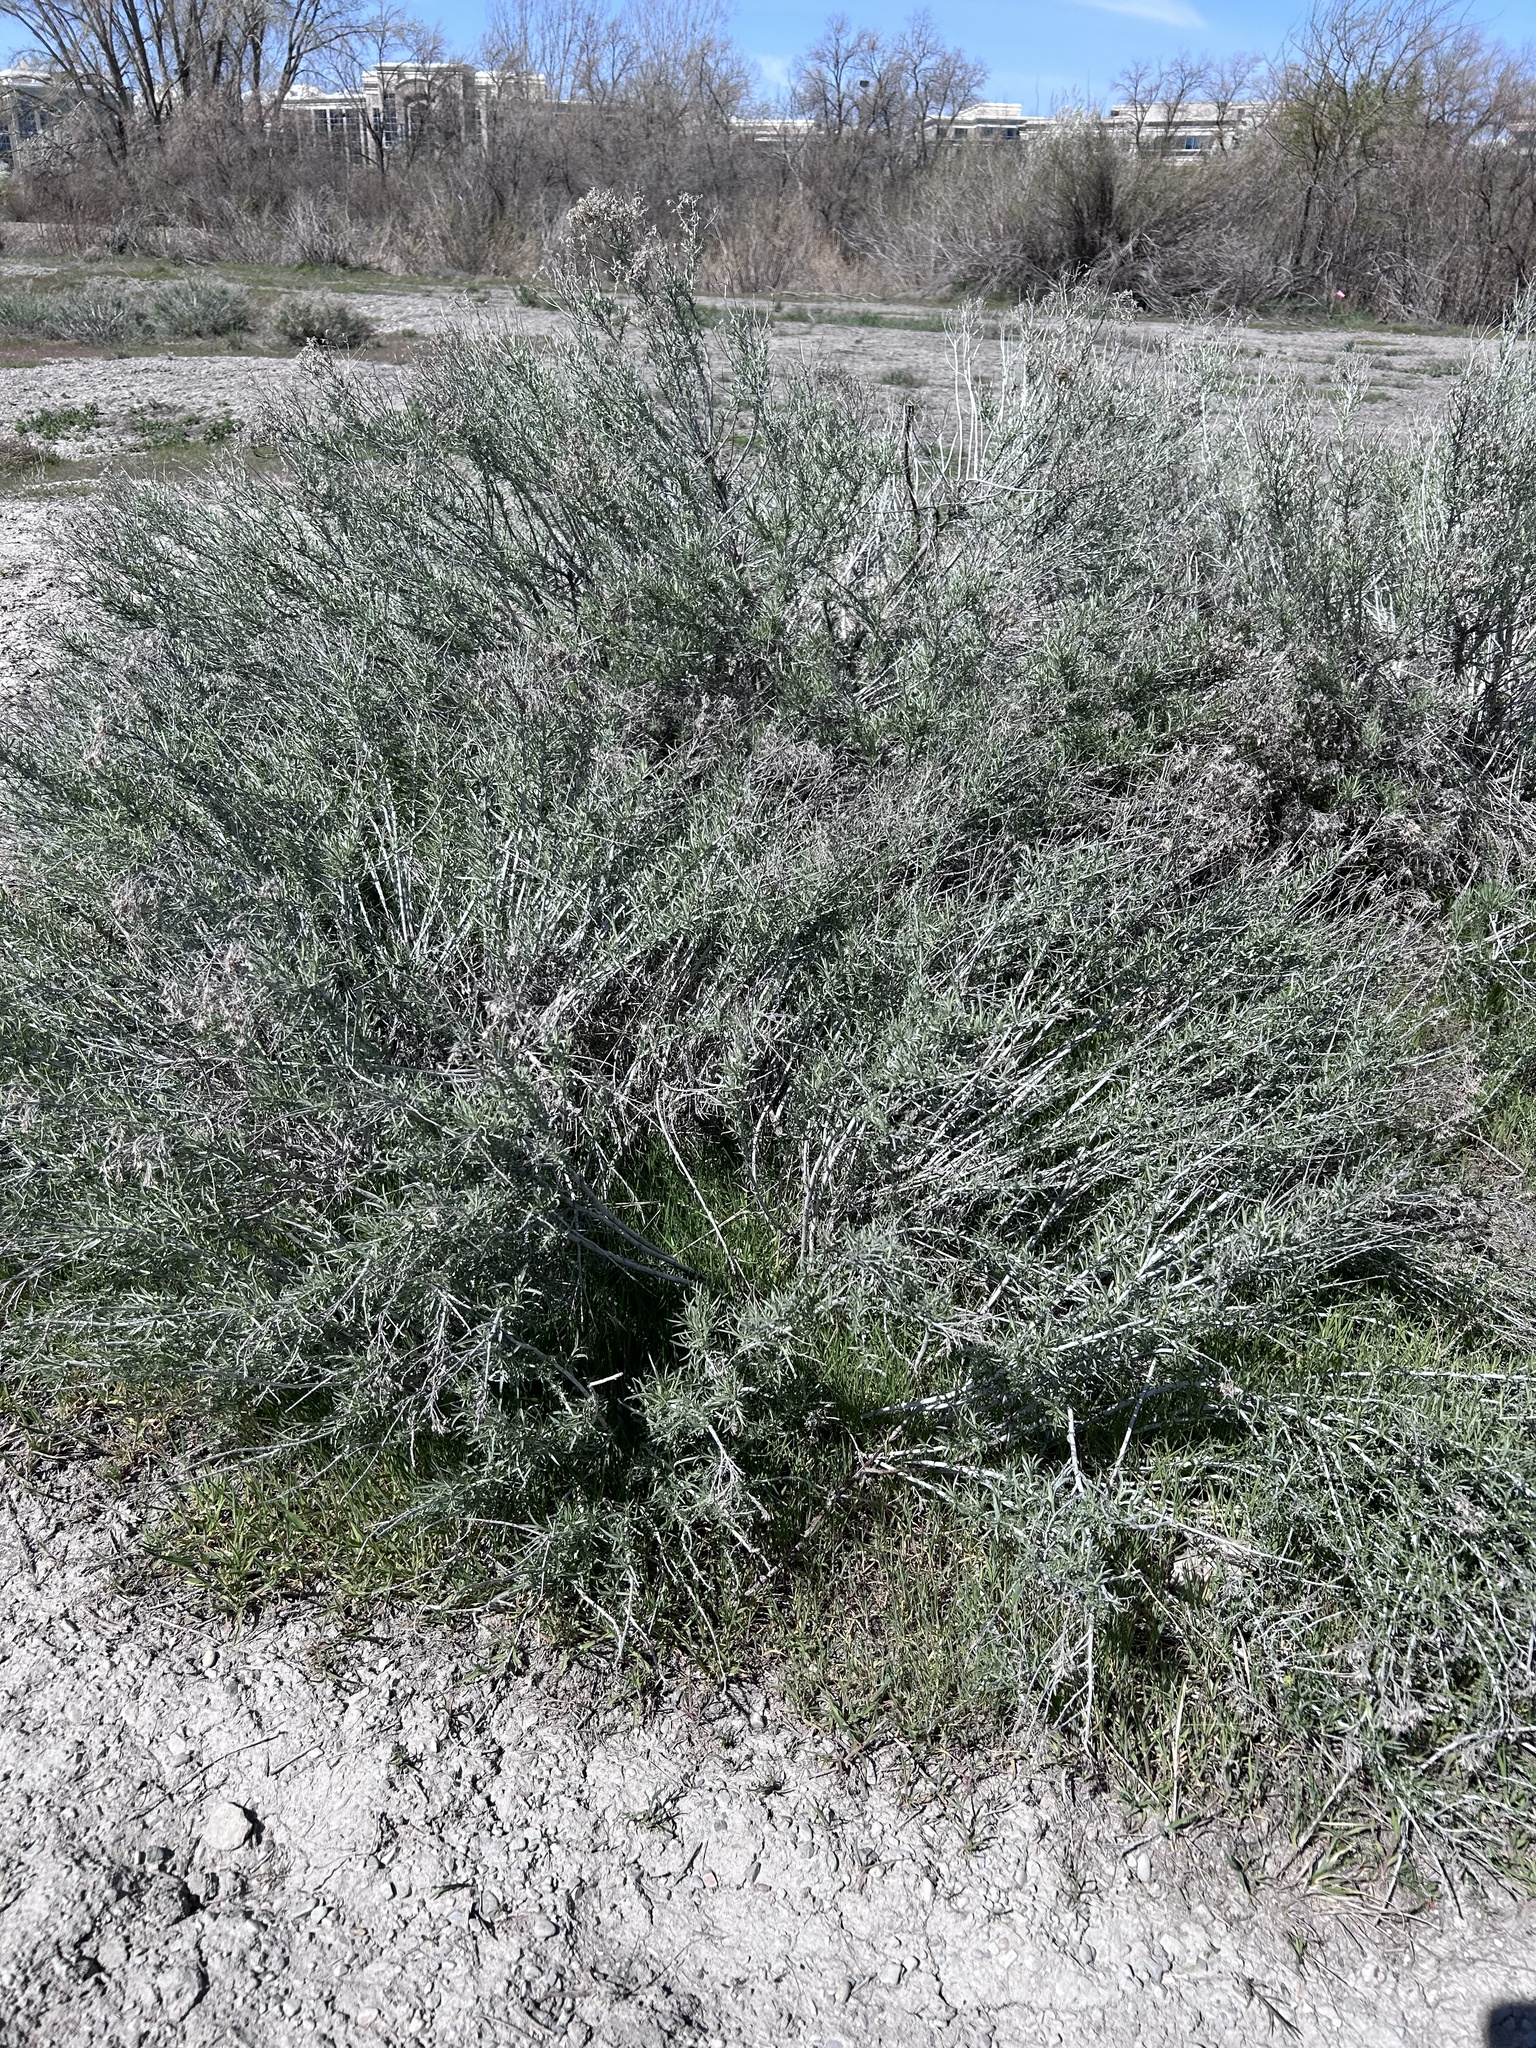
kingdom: Plantae
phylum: Tracheophyta
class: Magnoliopsida
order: Asterales
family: Asteraceae
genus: Ericameria
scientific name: Ericameria nauseosa
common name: Rubber rabbitbrush
